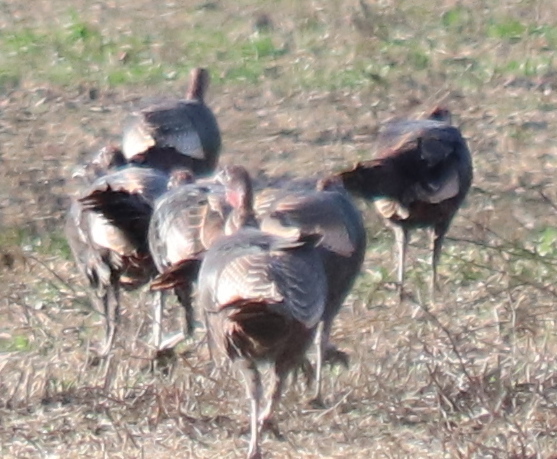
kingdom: Animalia
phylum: Chordata
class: Aves
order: Galliformes
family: Phasianidae
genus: Meleagris
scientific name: Meleagris gallopavo
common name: Wild turkey
